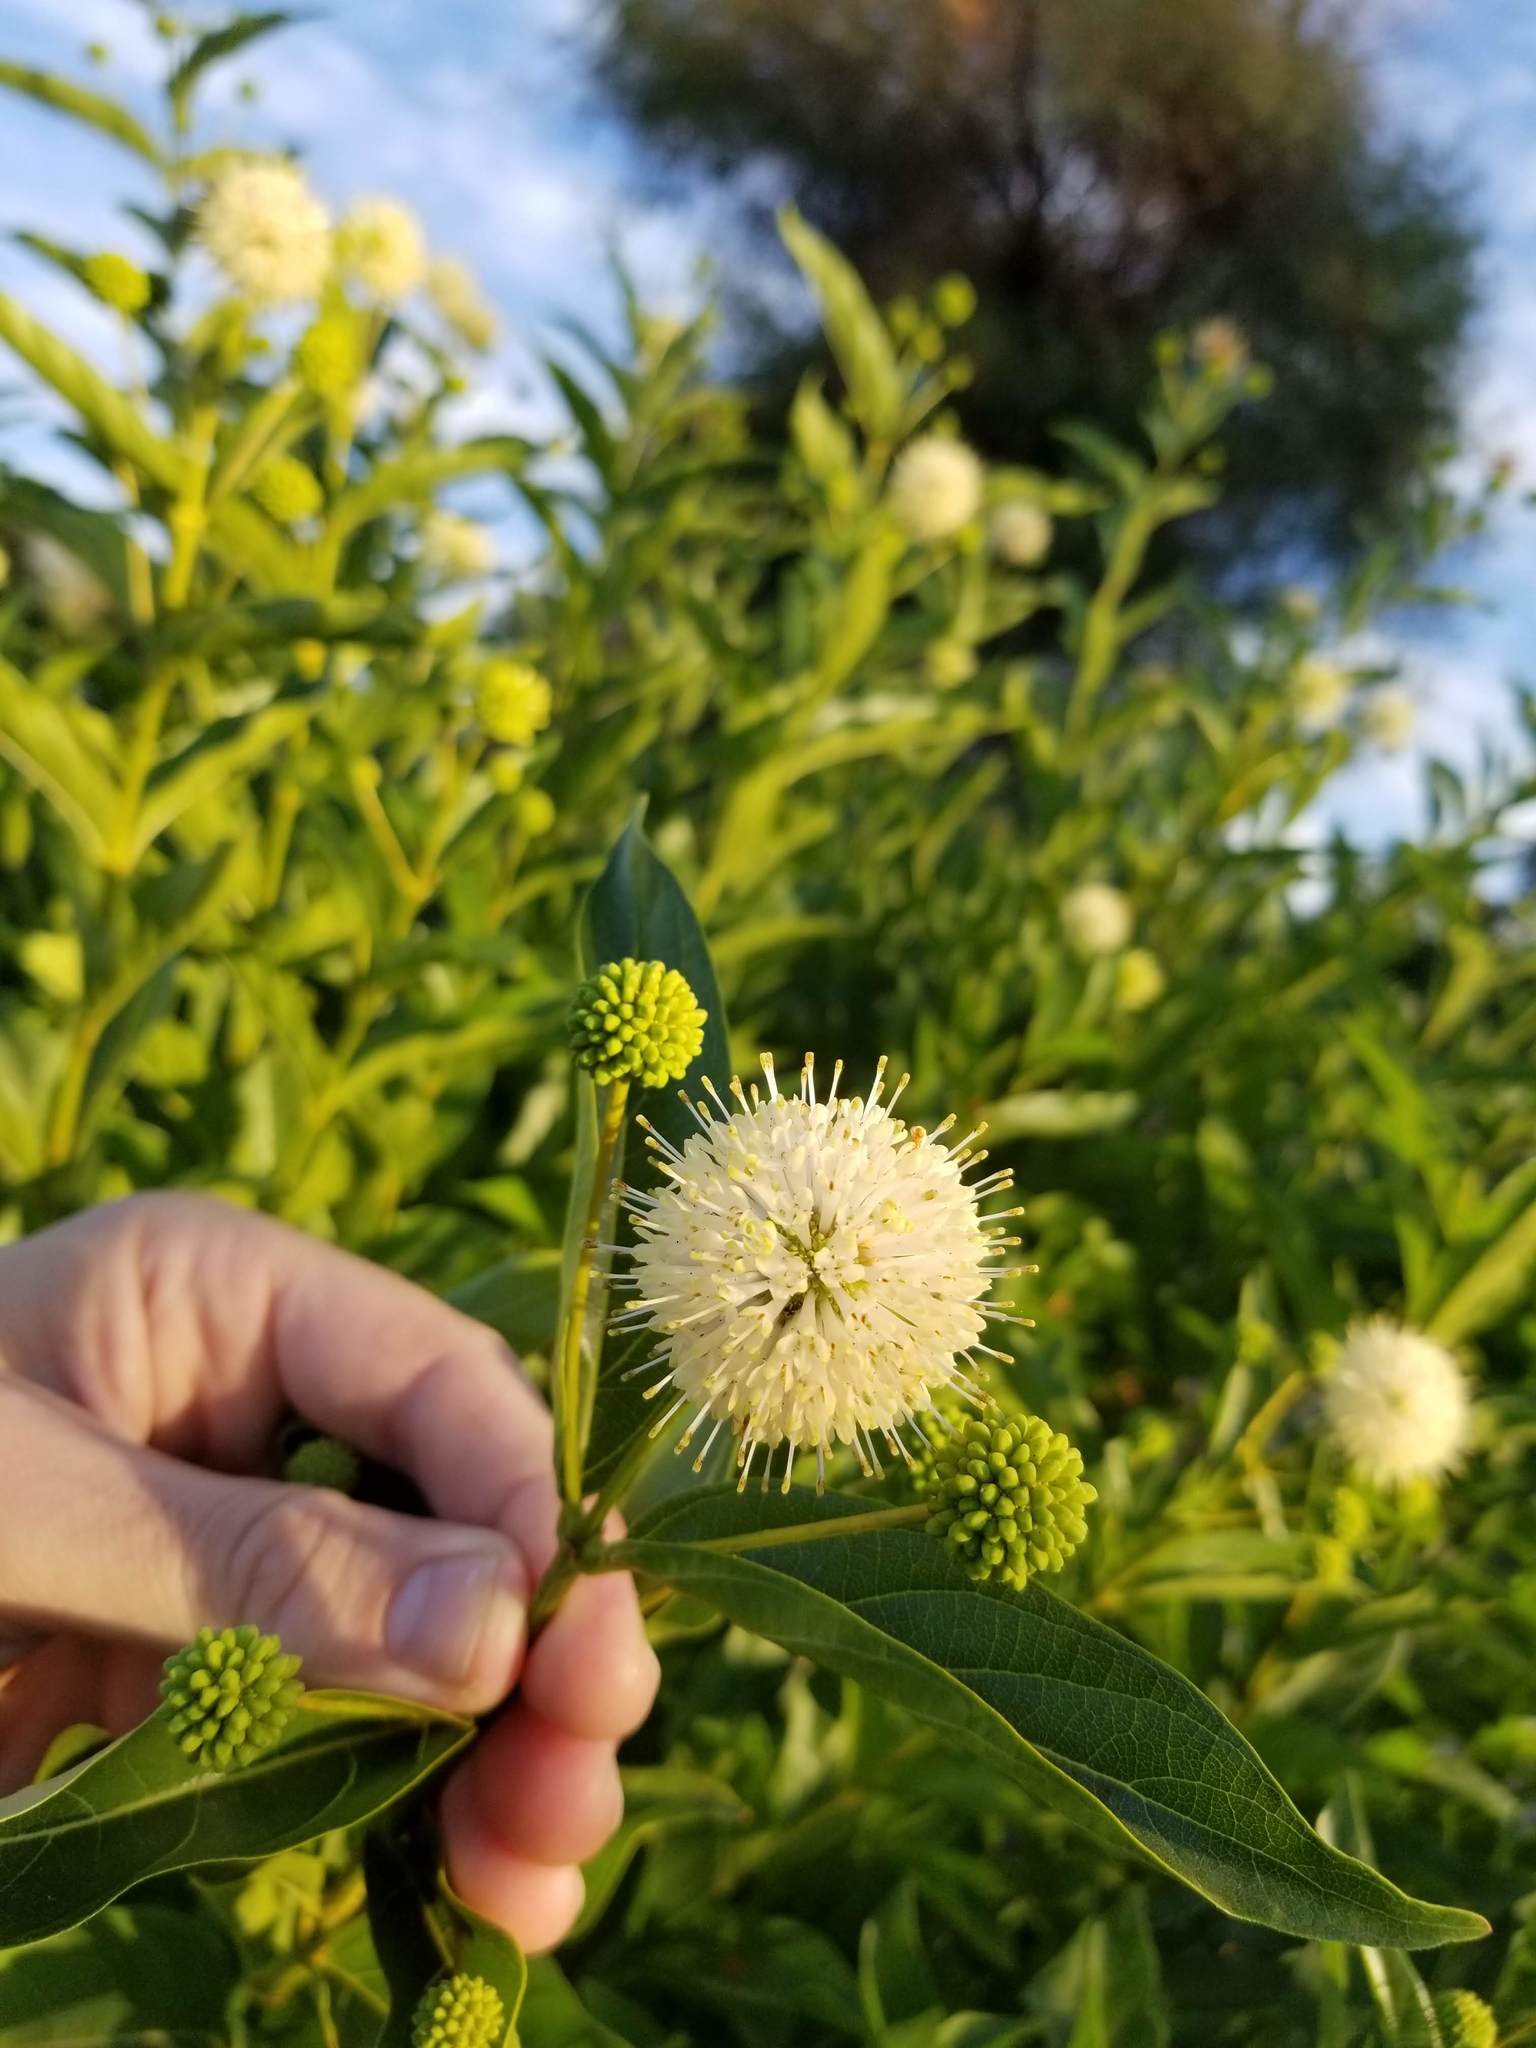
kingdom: Plantae
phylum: Tracheophyta
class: Magnoliopsida
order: Gentianales
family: Rubiaceae
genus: Cephalanthus
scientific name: Cephalanthus occidentalis
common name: Button-willow
